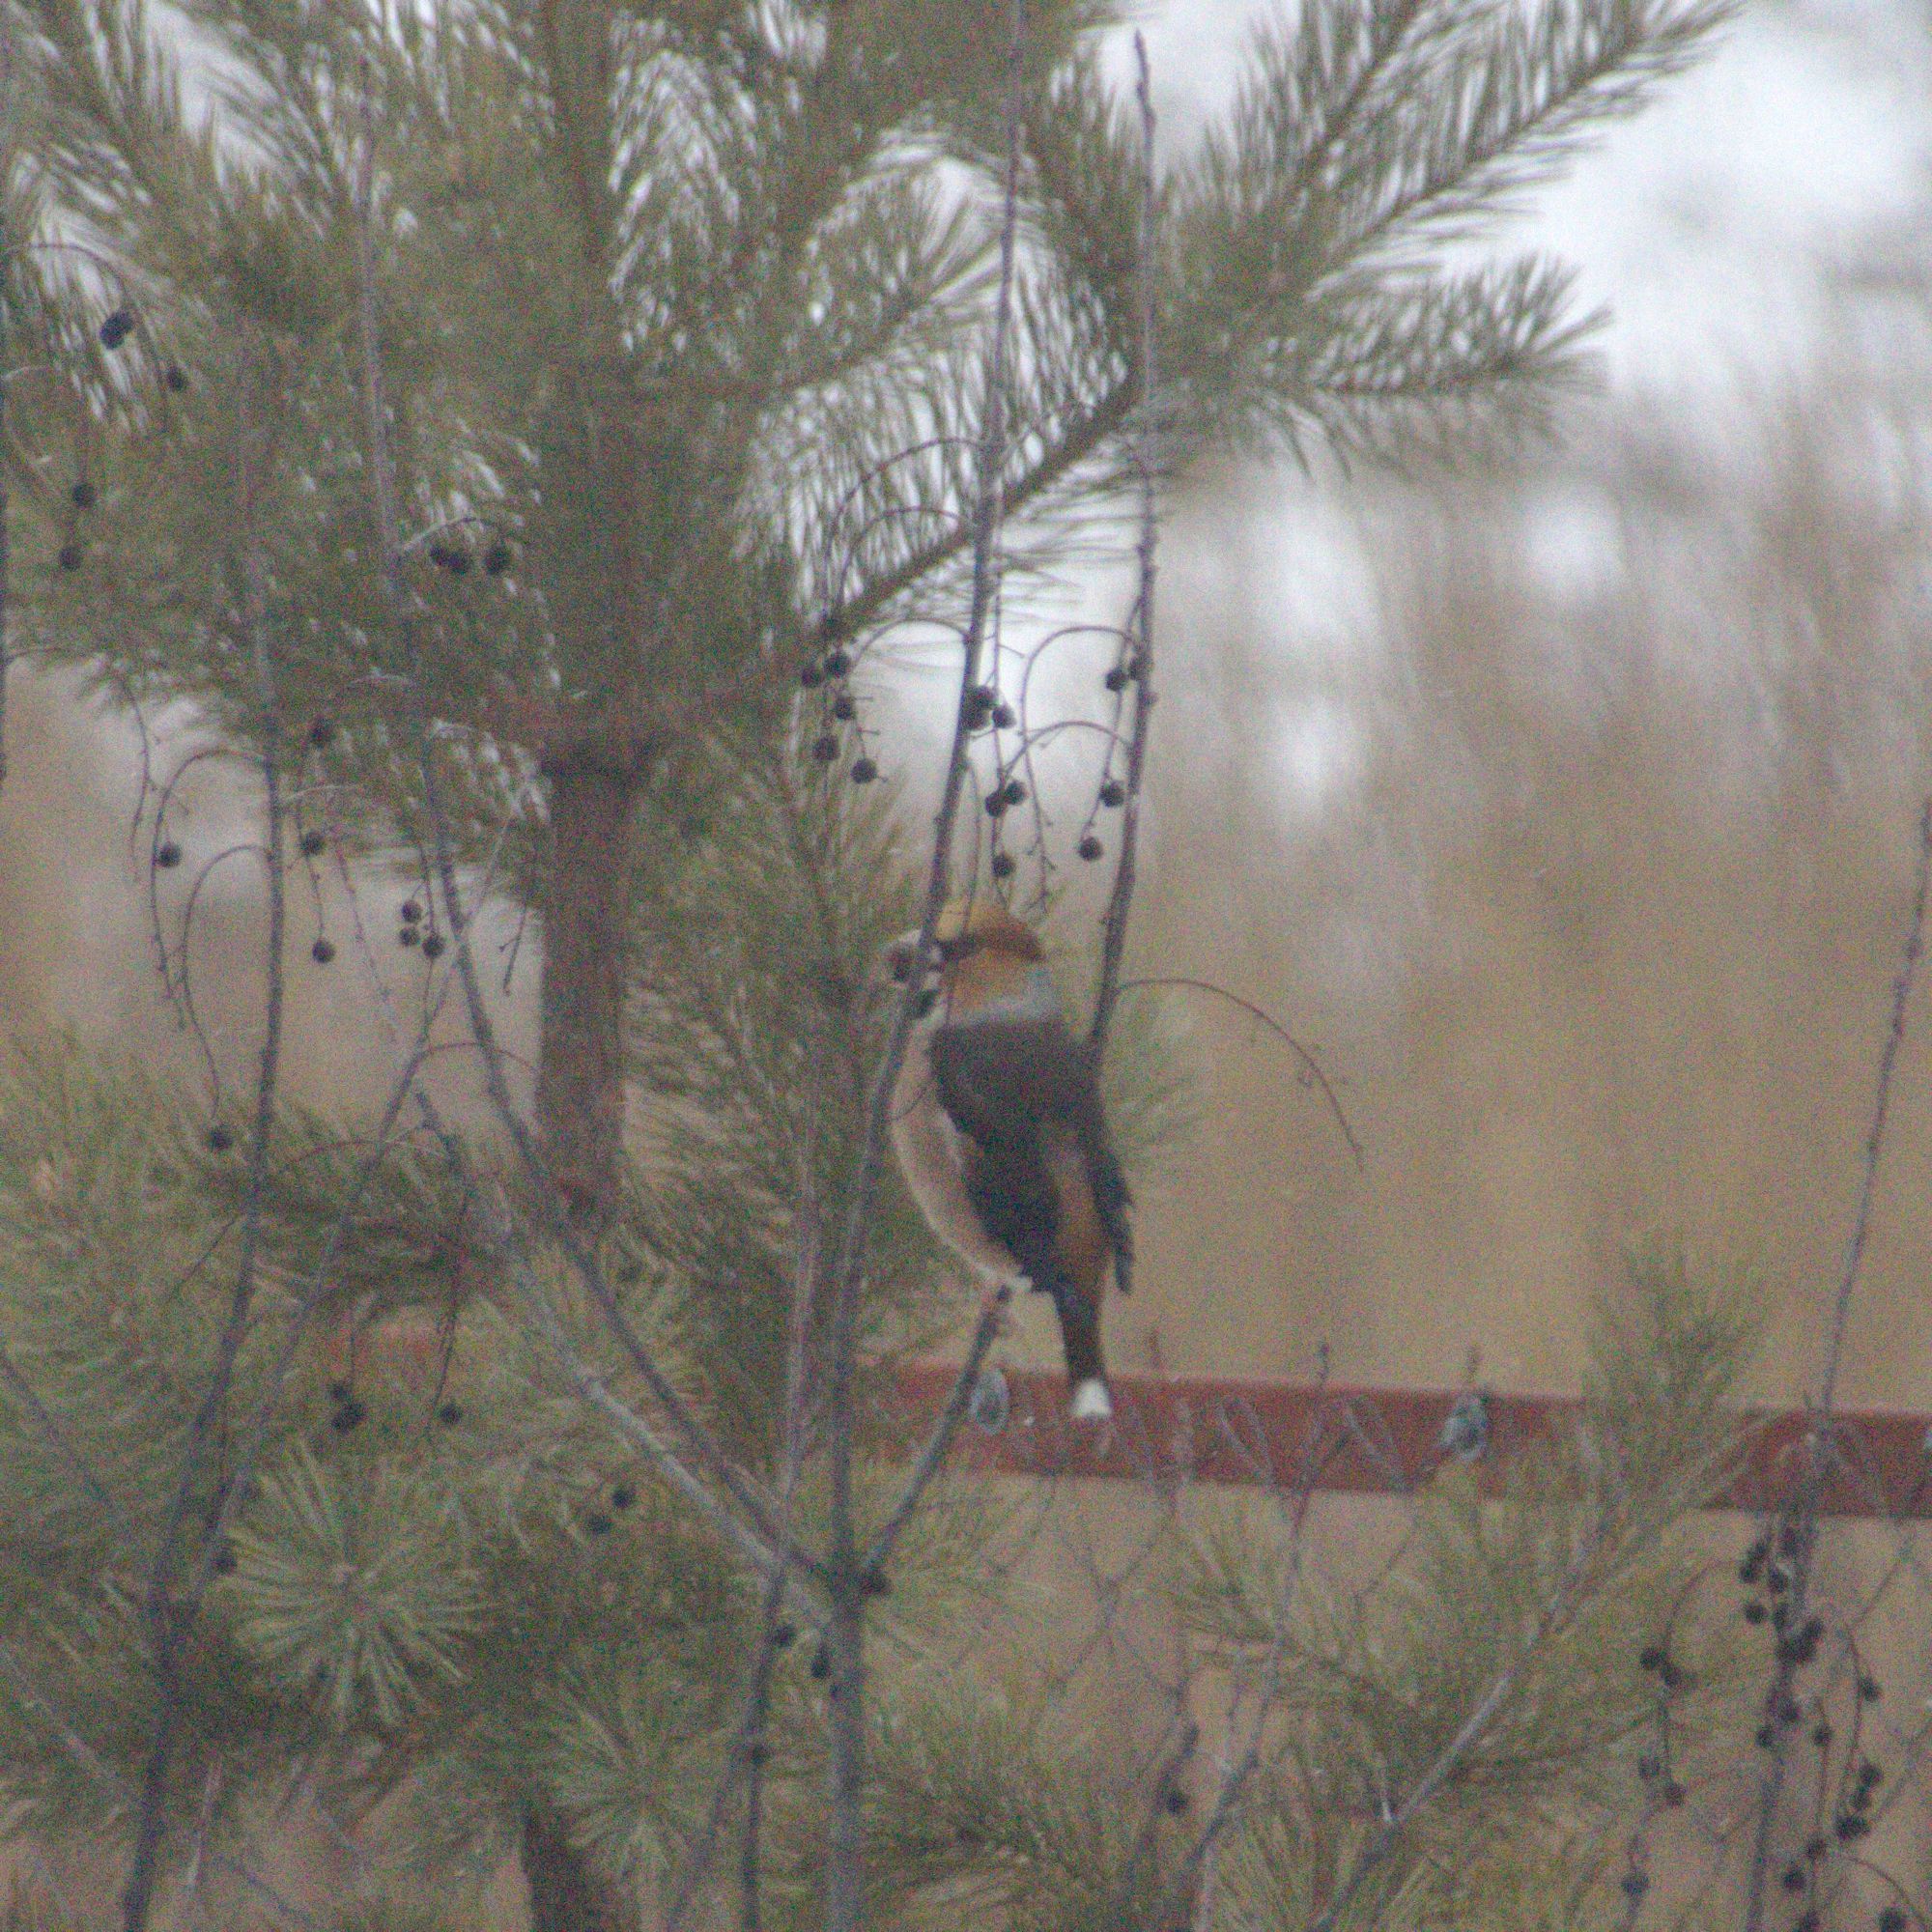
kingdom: Animalia
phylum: Chordata
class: Aves
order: Passeriformes
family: Fringillidae
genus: Coccothraustes
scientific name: Coccothraustes coccothraustes
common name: Hawfinch
